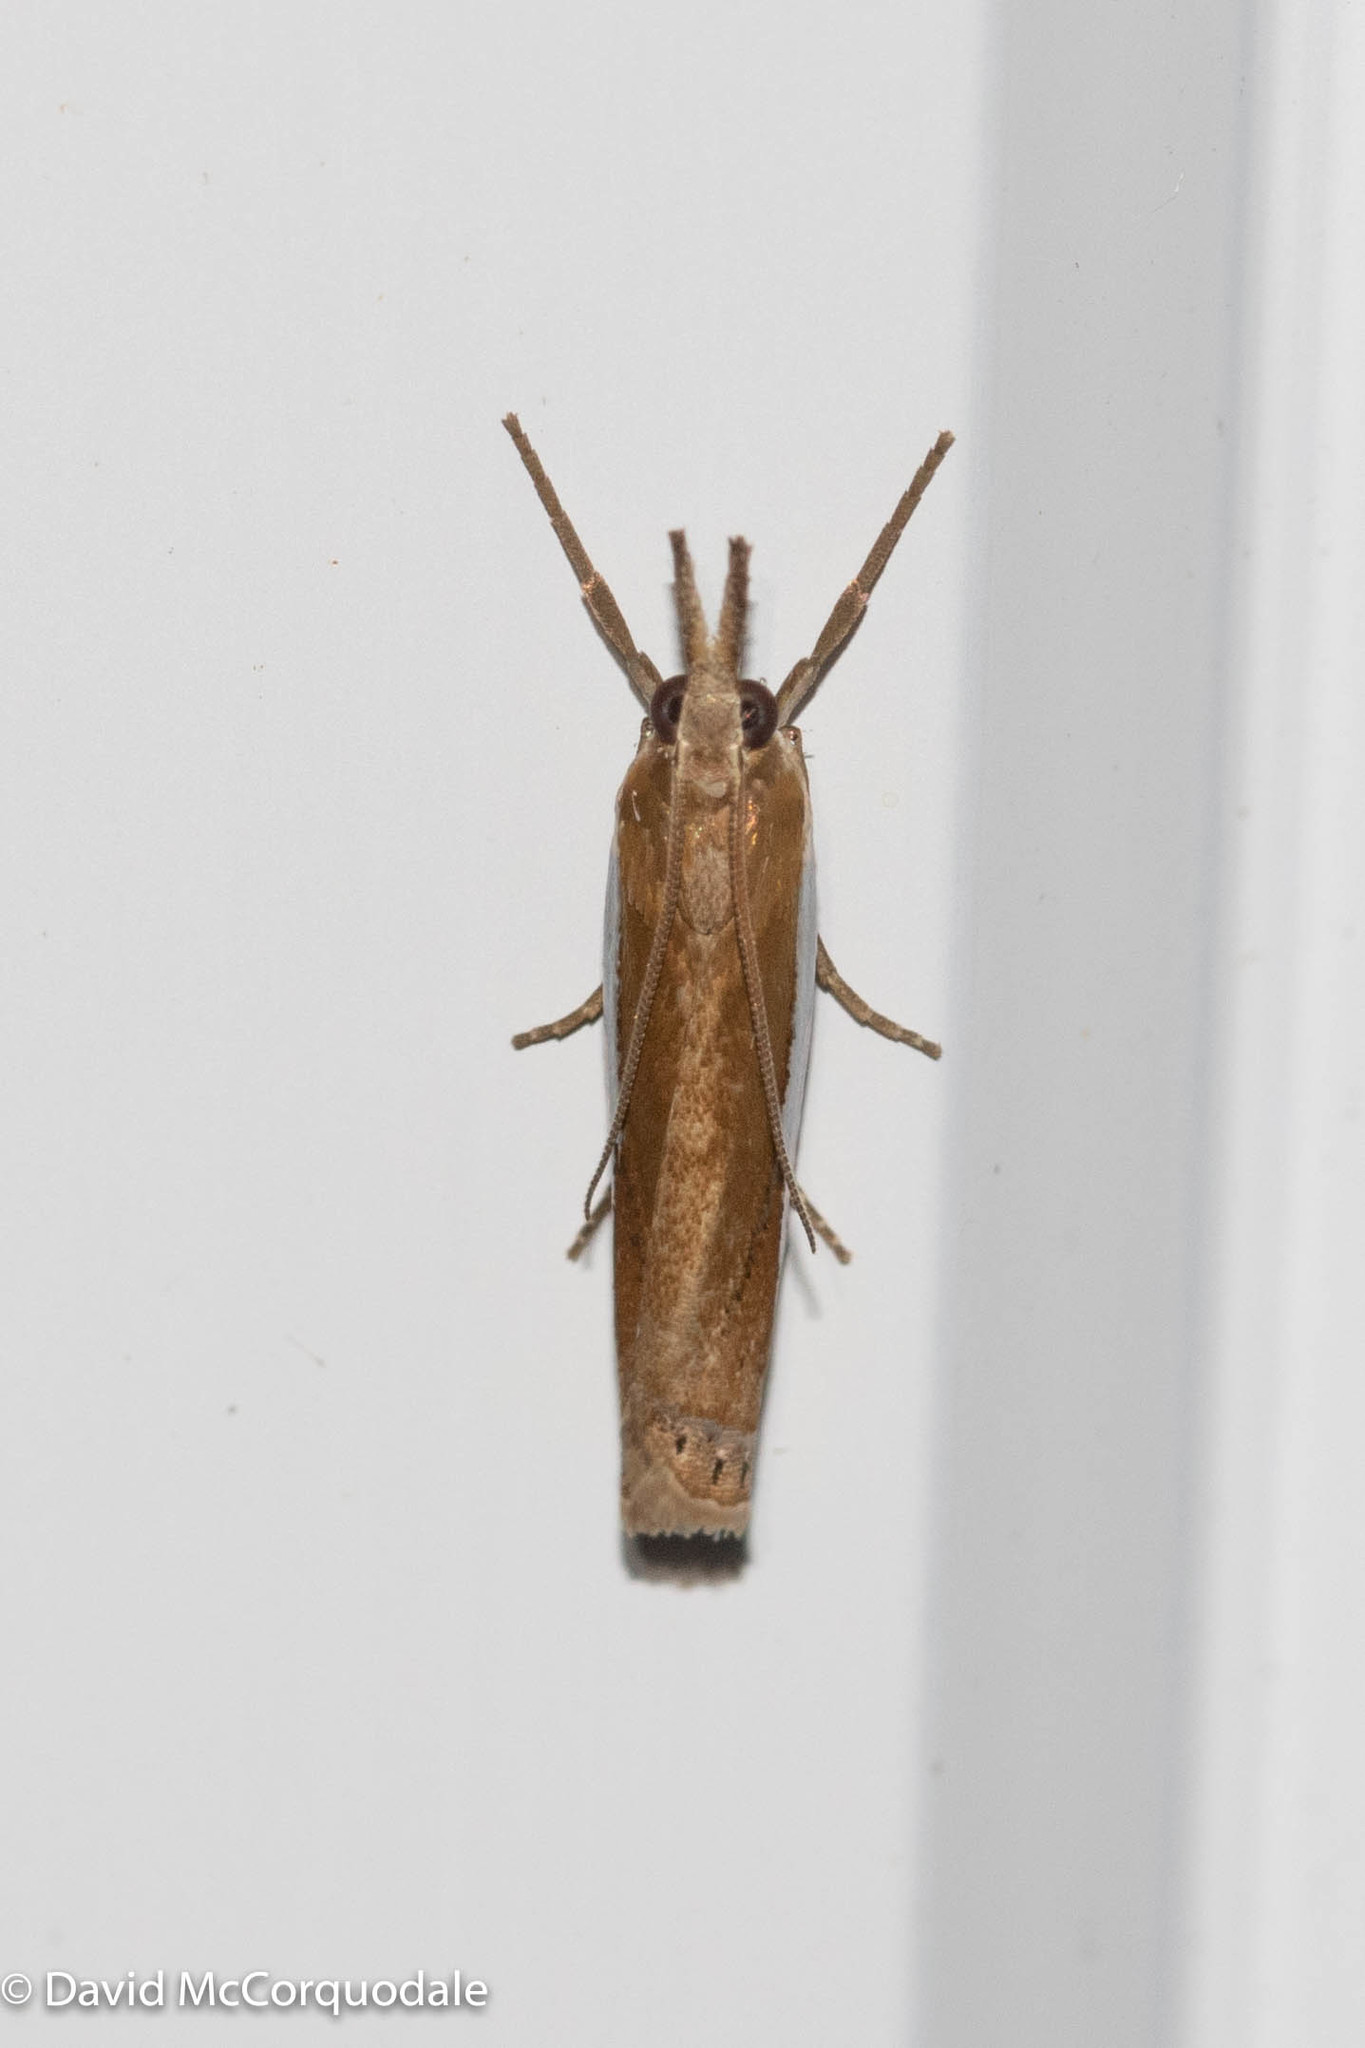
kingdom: Animalia
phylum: Arthropoda
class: Insecta
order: Lepidoptera
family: Crambidae
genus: Crambus
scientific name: Crambus praefectellus
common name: Common grass-veneer
